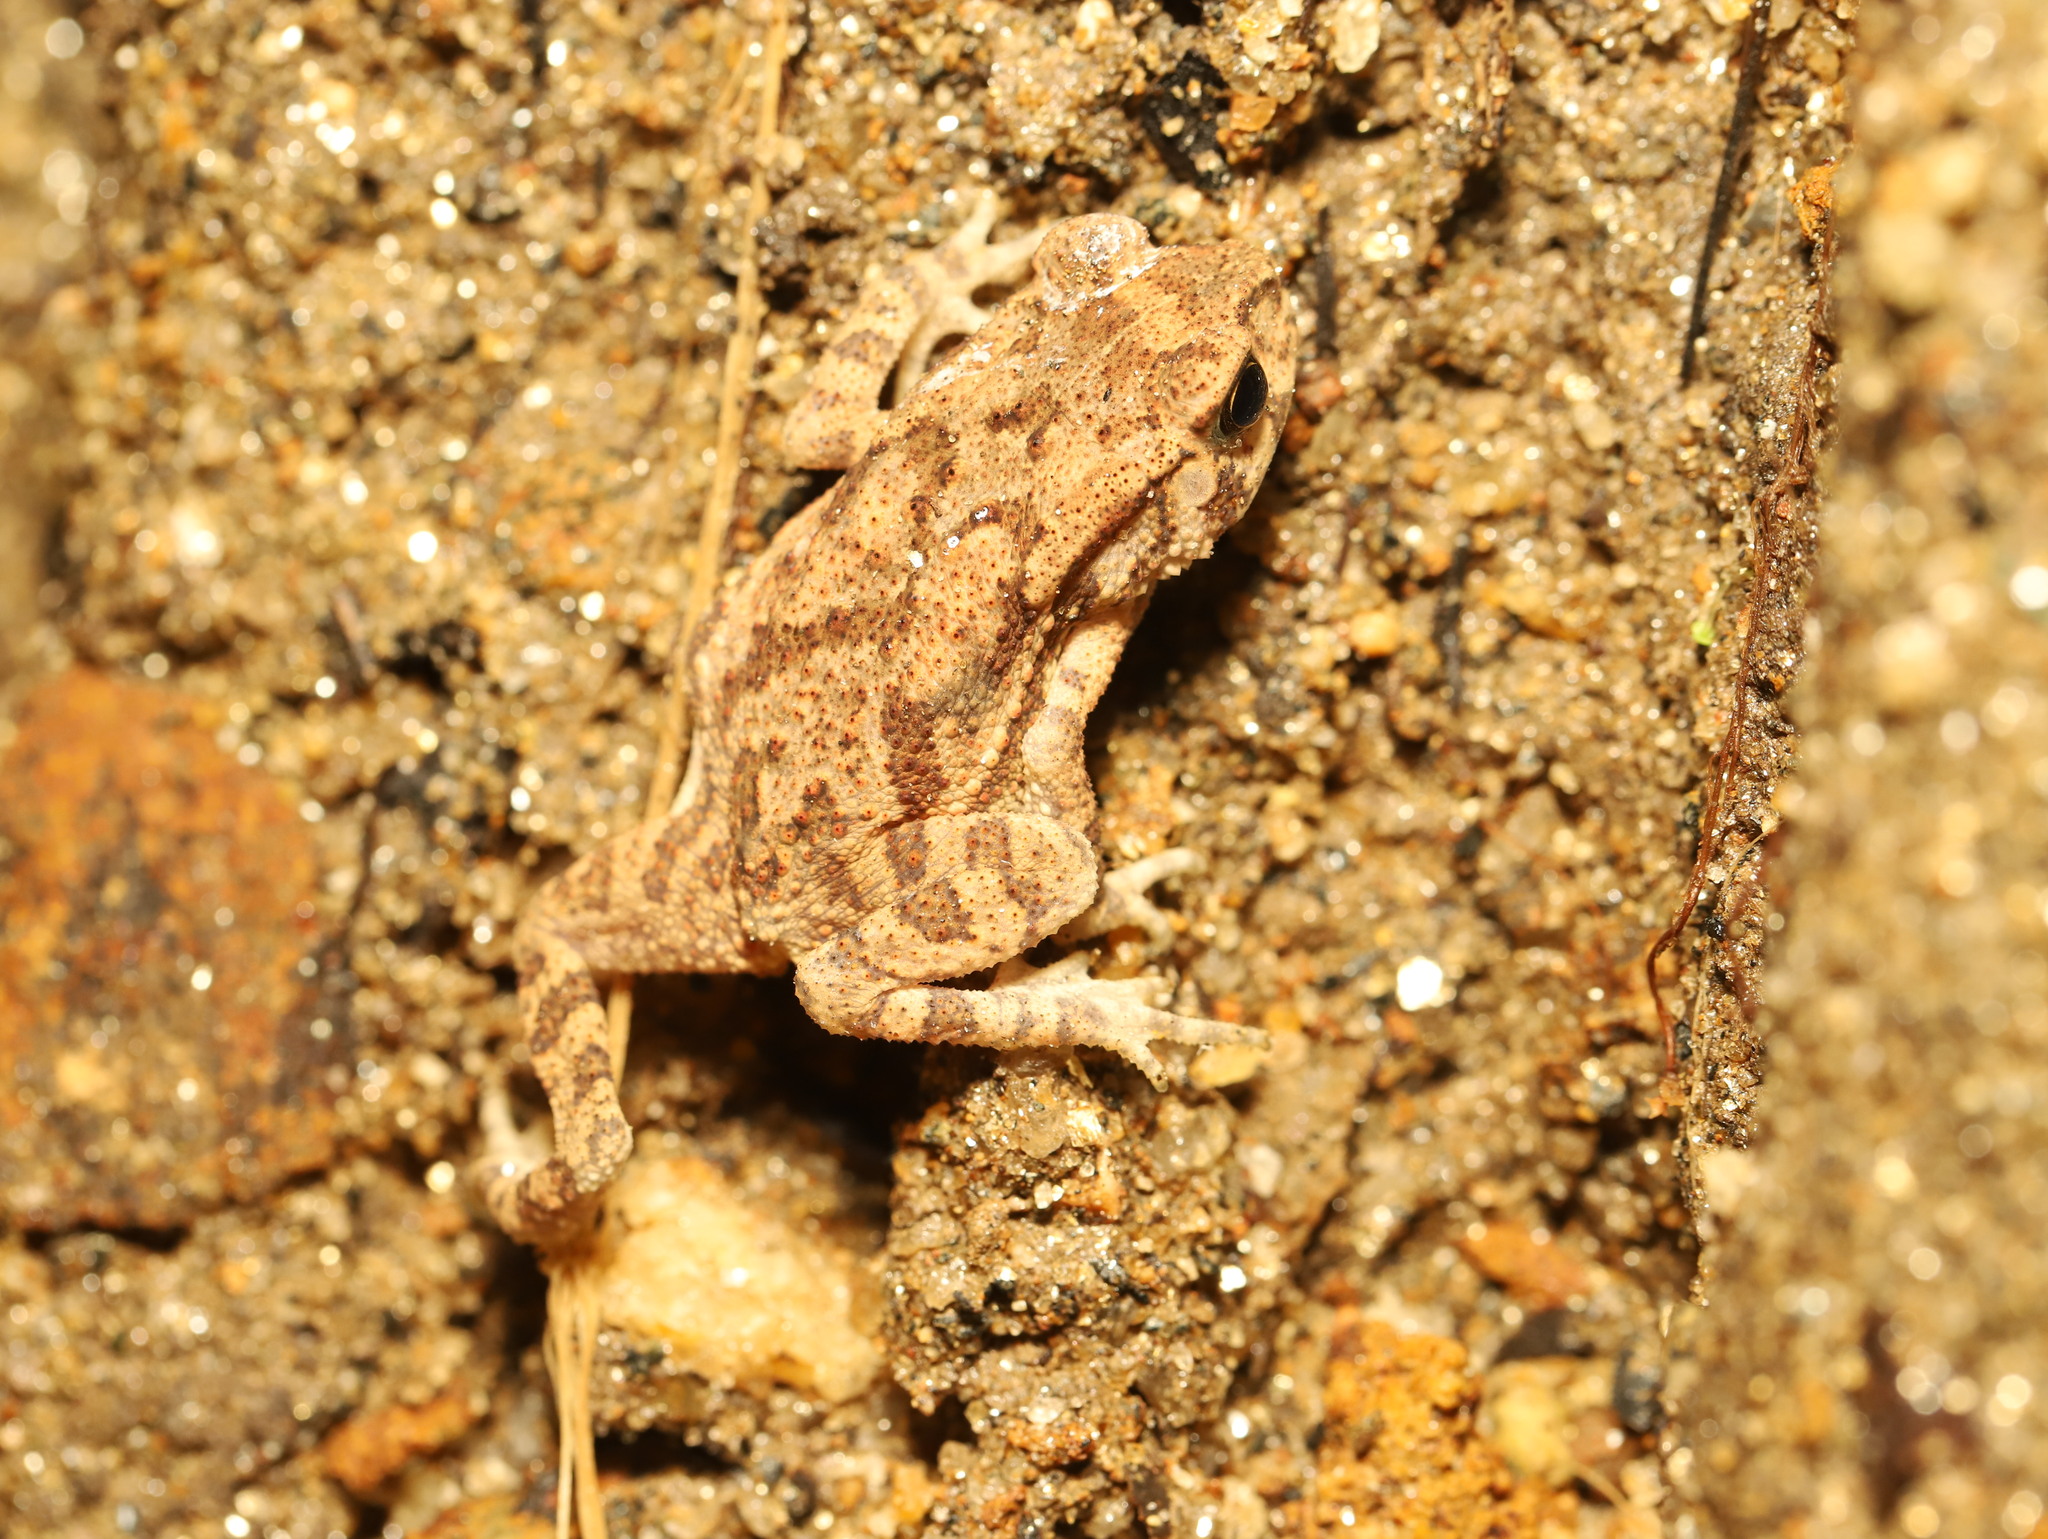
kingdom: Animalia
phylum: Chordata
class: Amphibia
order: Anura
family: Bufonidae
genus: Duttaphrynus
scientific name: Duttaphrynus melanostictus
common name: Common sunda toad
